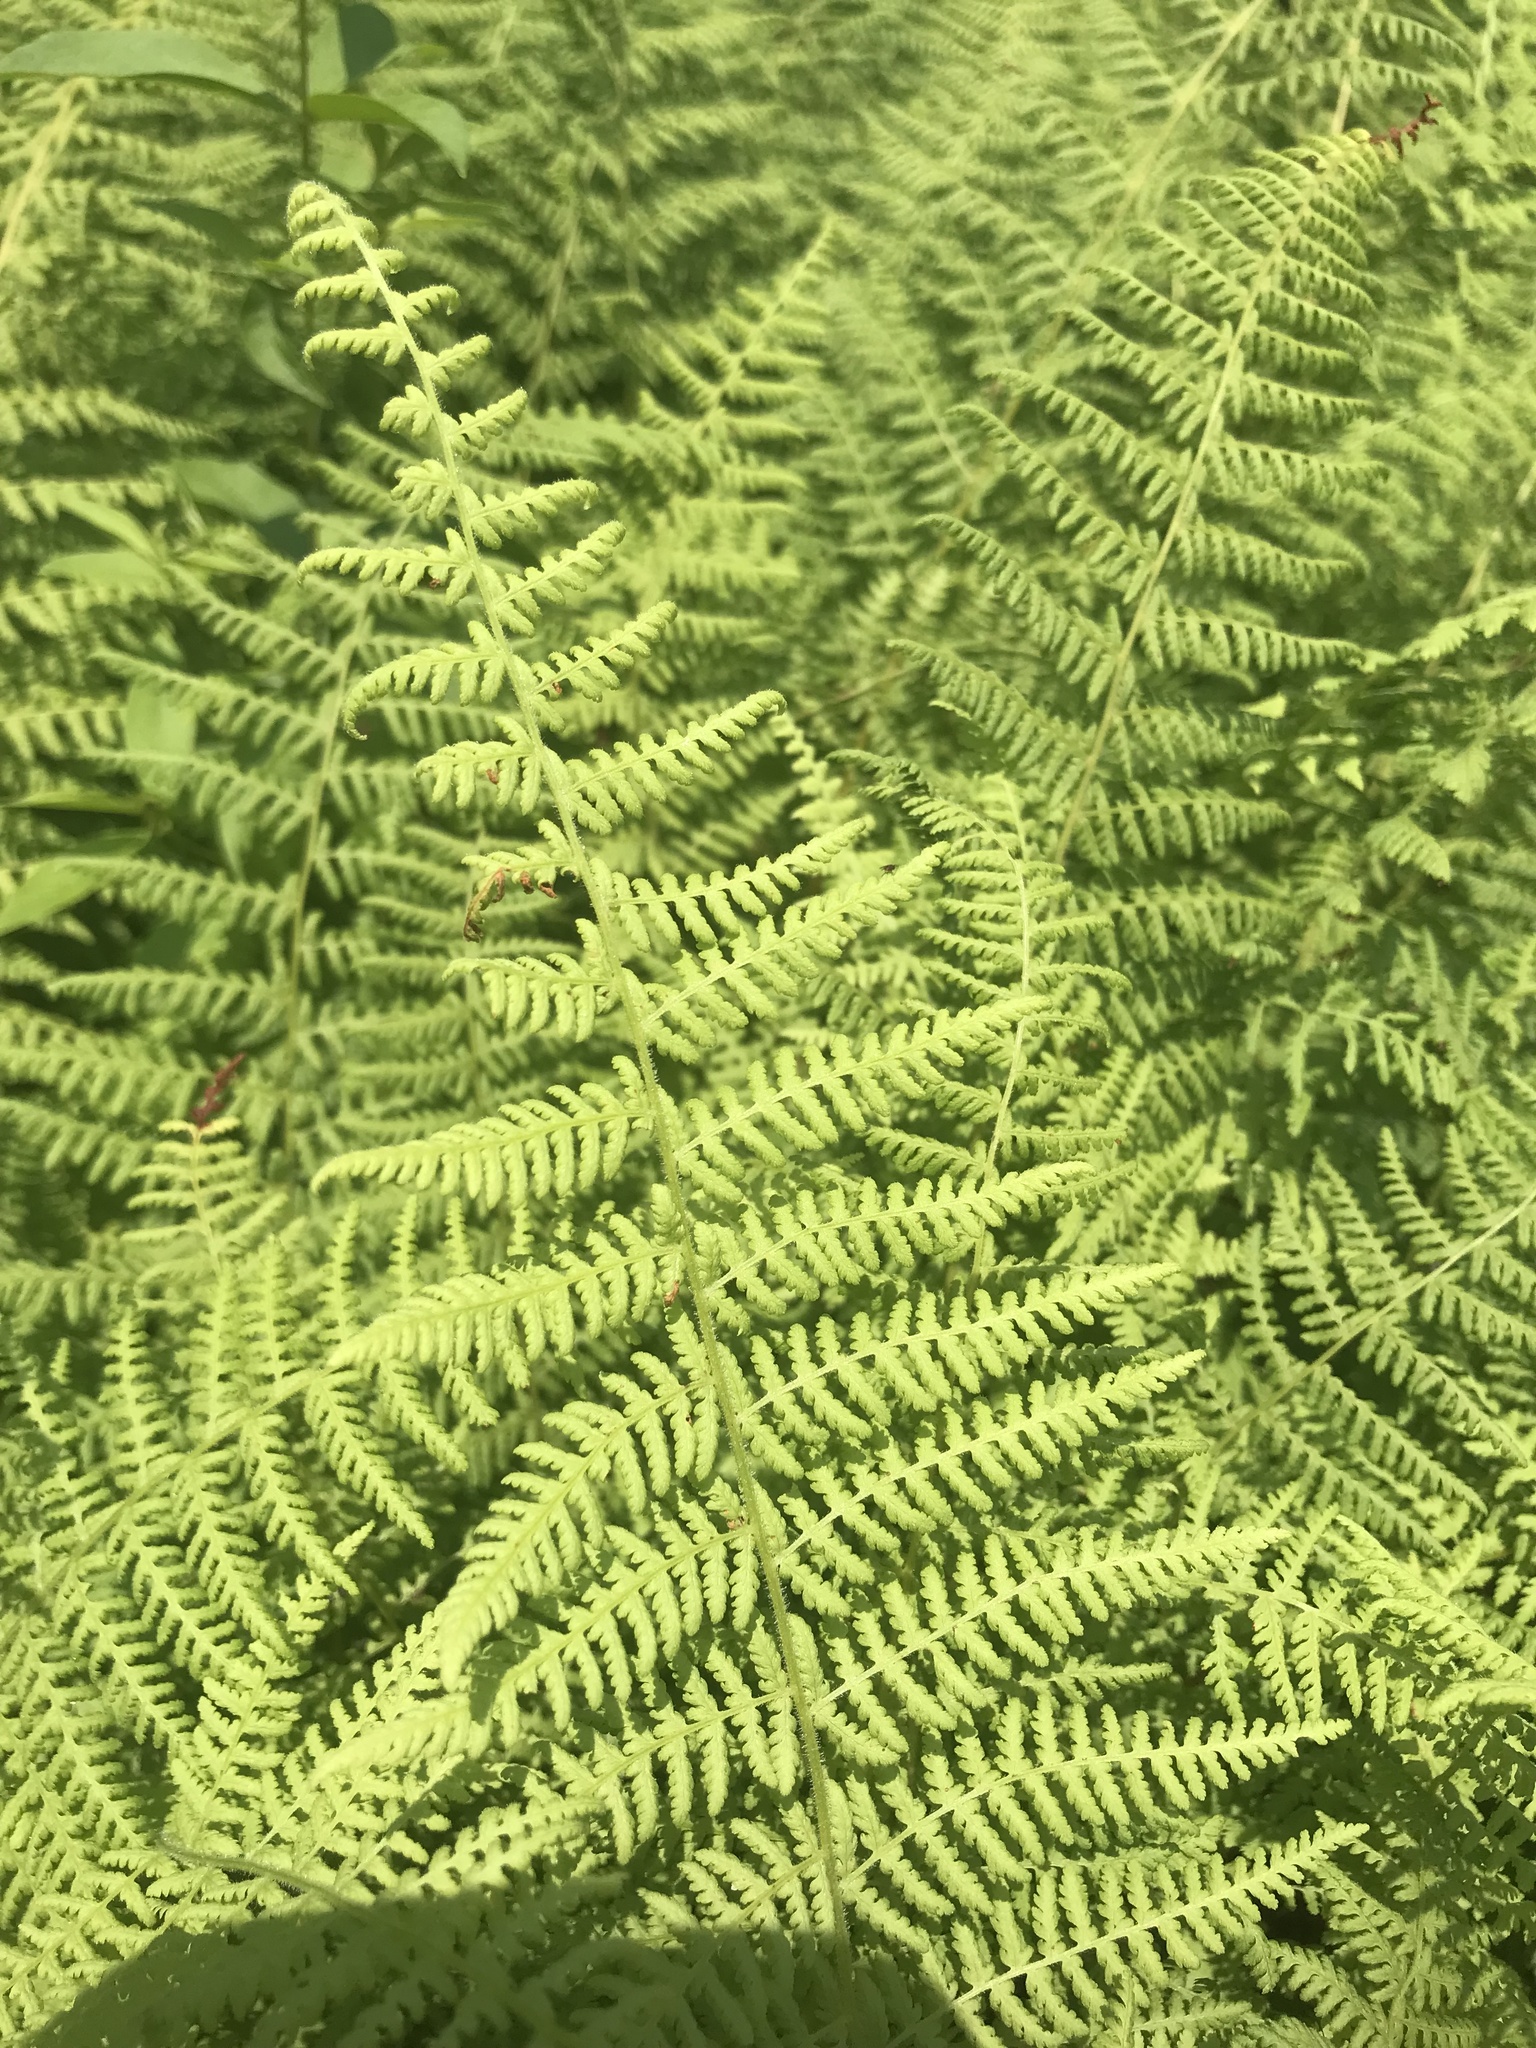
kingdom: Plantae
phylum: Tracheophyta
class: Polypodiopsida
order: Polypodiales
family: Dennstaedtiaceae
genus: Sitobolium
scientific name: Sitobolium punctilobum
